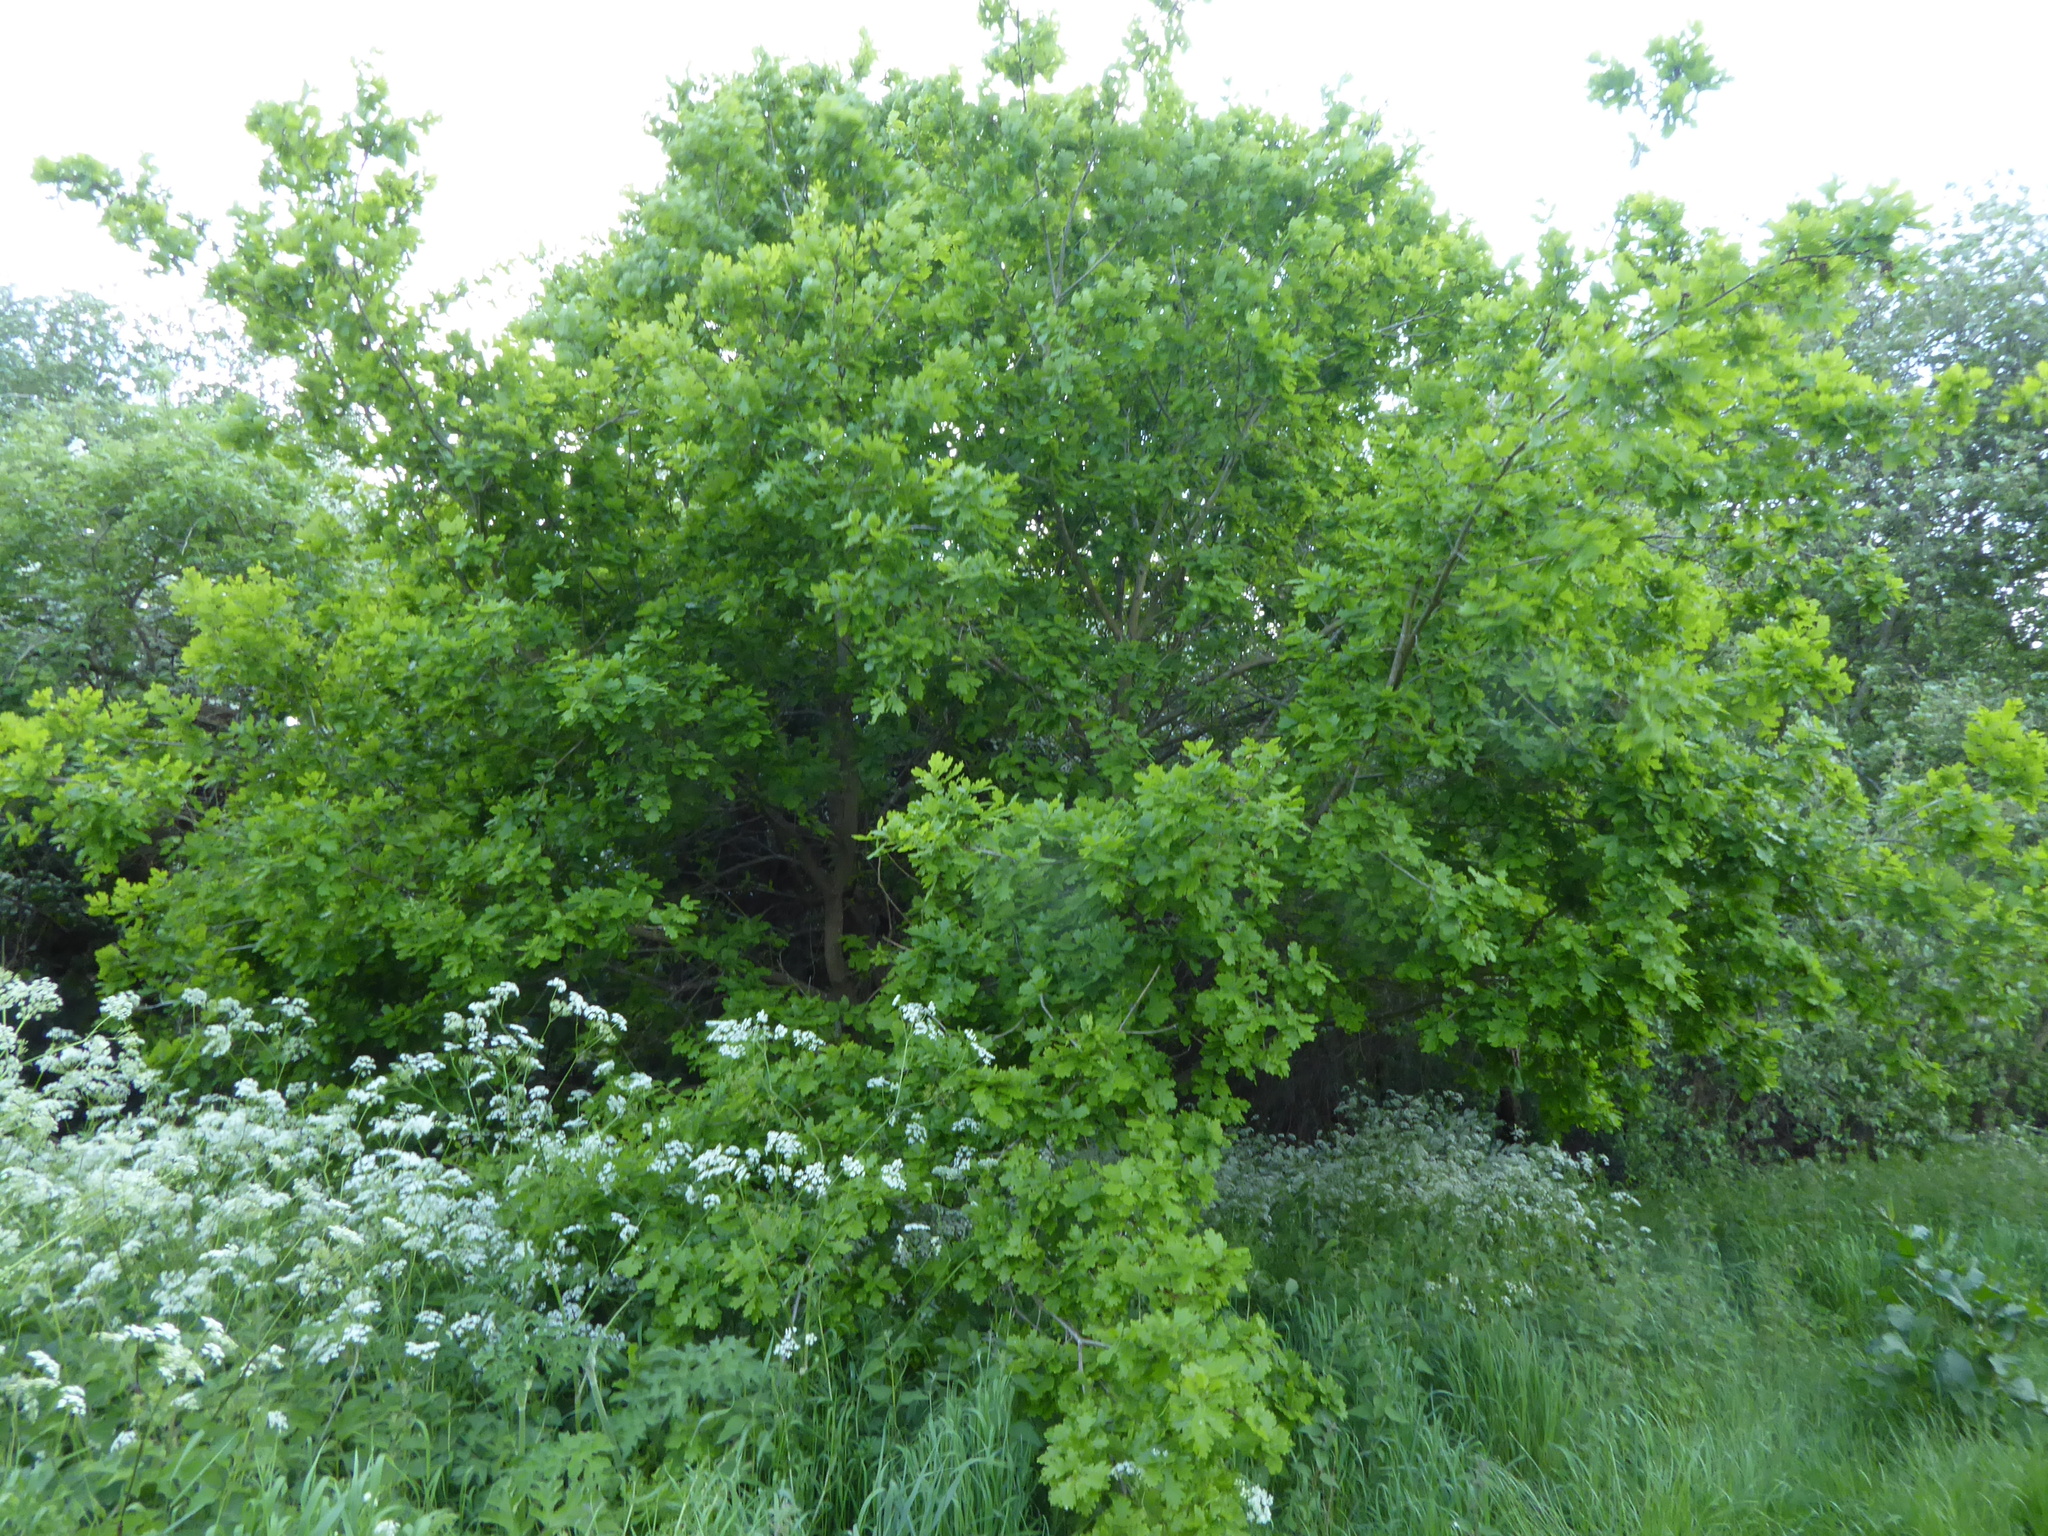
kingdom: Plantae
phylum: Tracheophyta
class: Magnoliopsida
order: Fagales
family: Fagaceae
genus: Quercus
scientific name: Quercus robur
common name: Pedunculate oak
